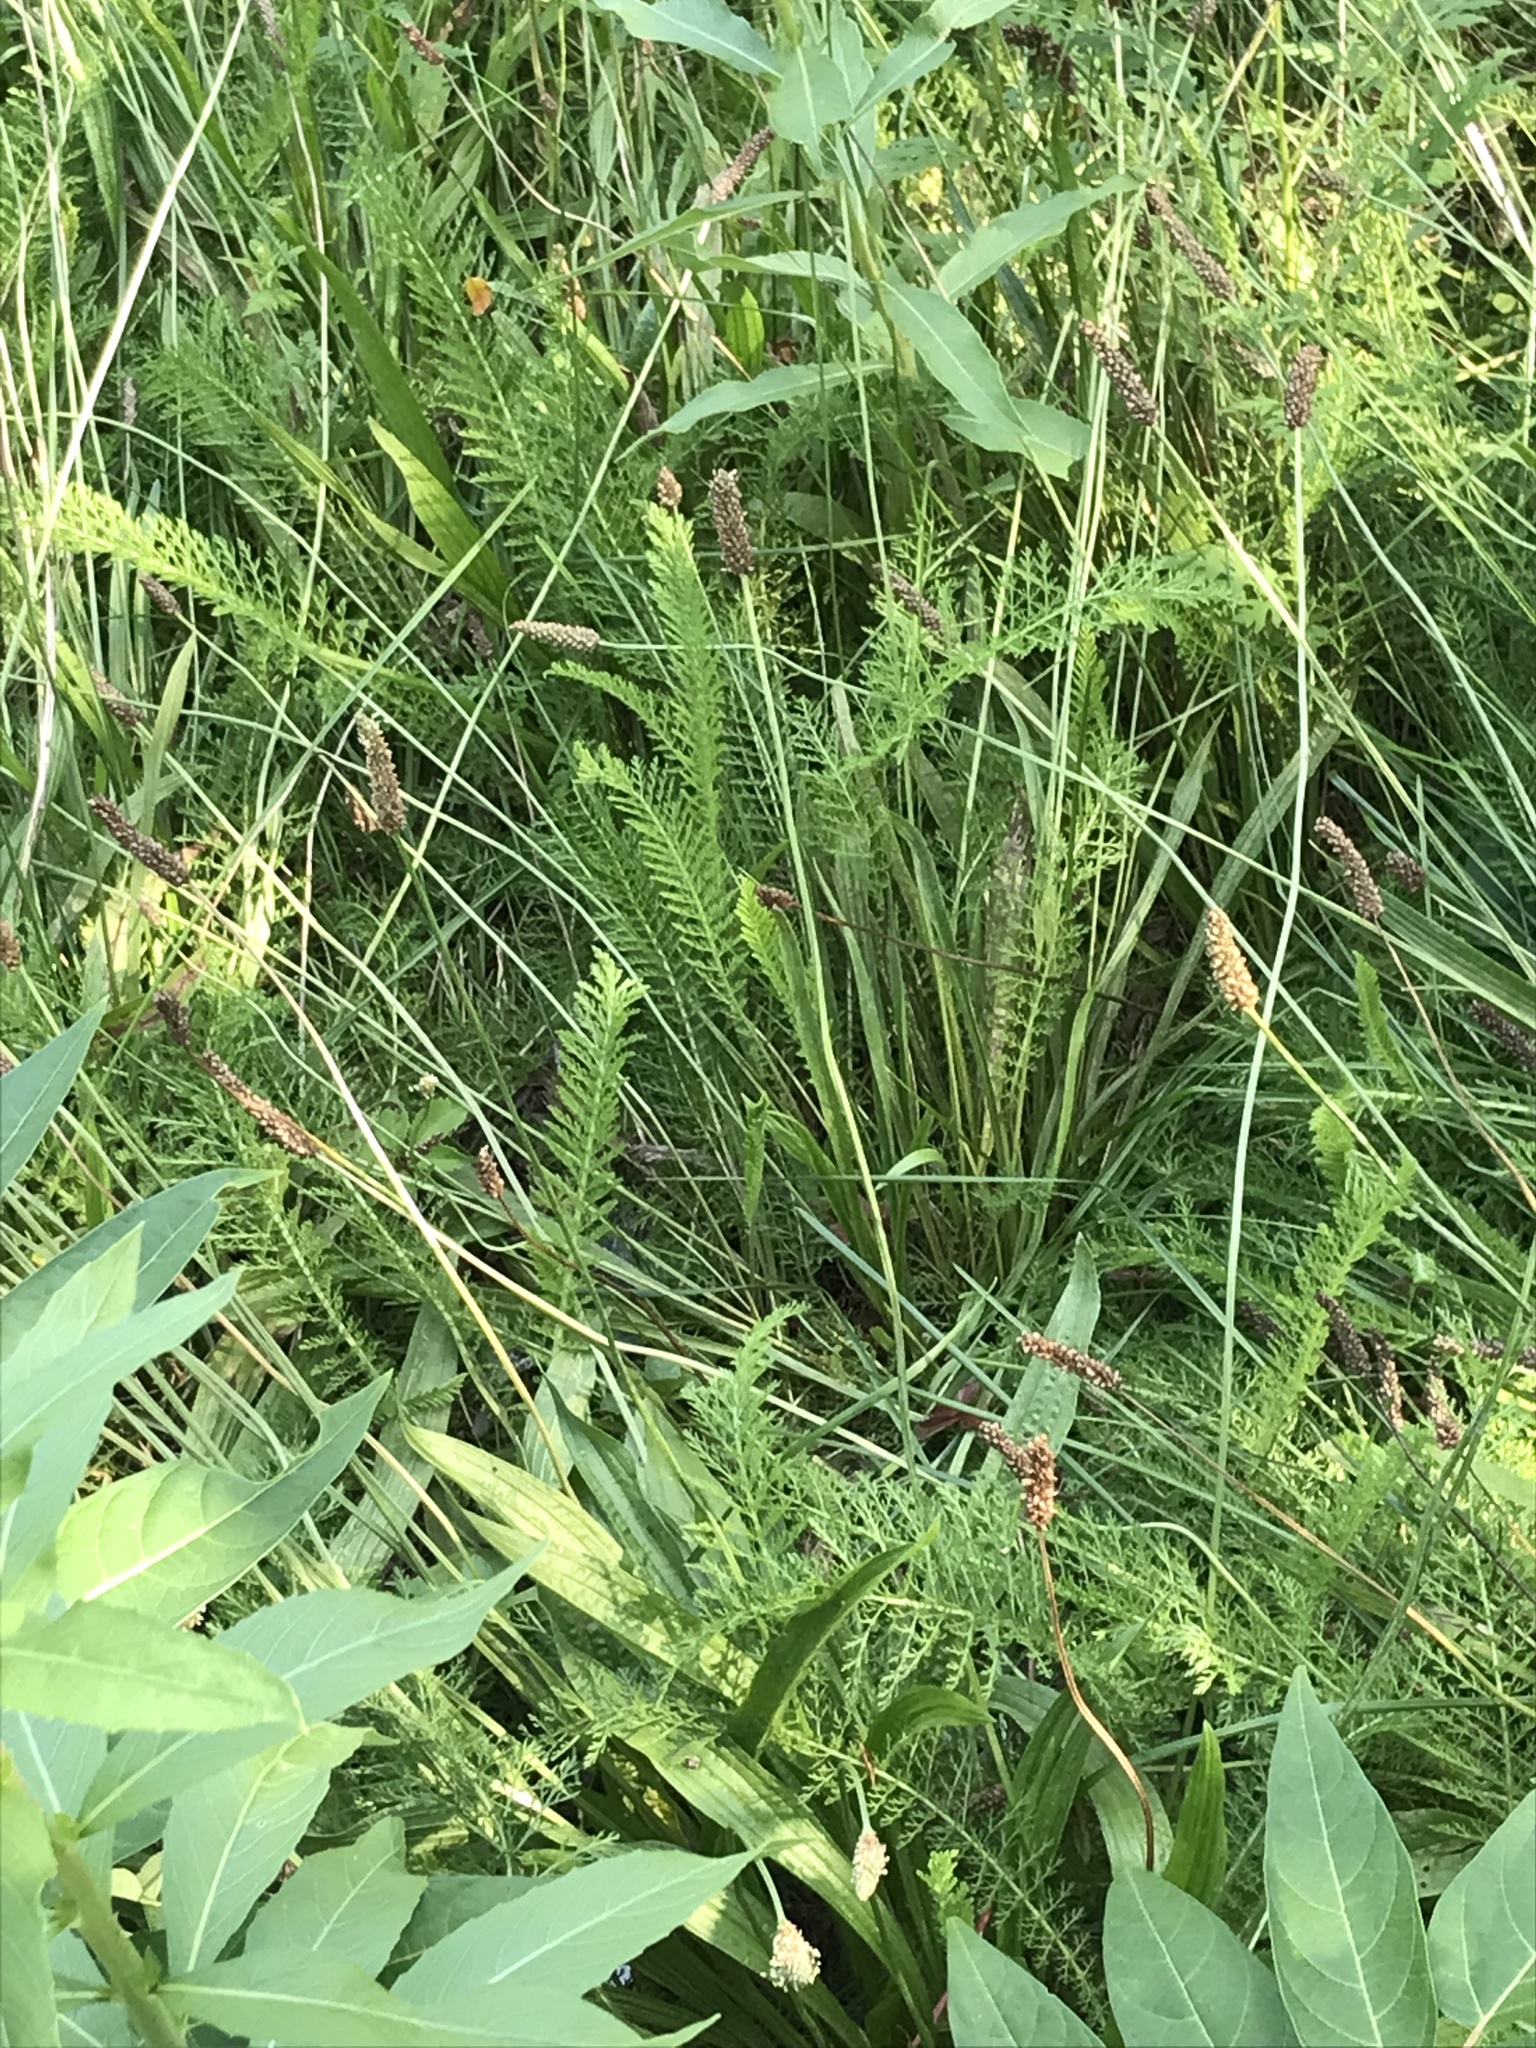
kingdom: Plantae
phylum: Tracheophyta
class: Magnoliopsida
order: Asterales
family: Asteraceae
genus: Achillea
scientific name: Achillea millefolium
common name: Yarrow
